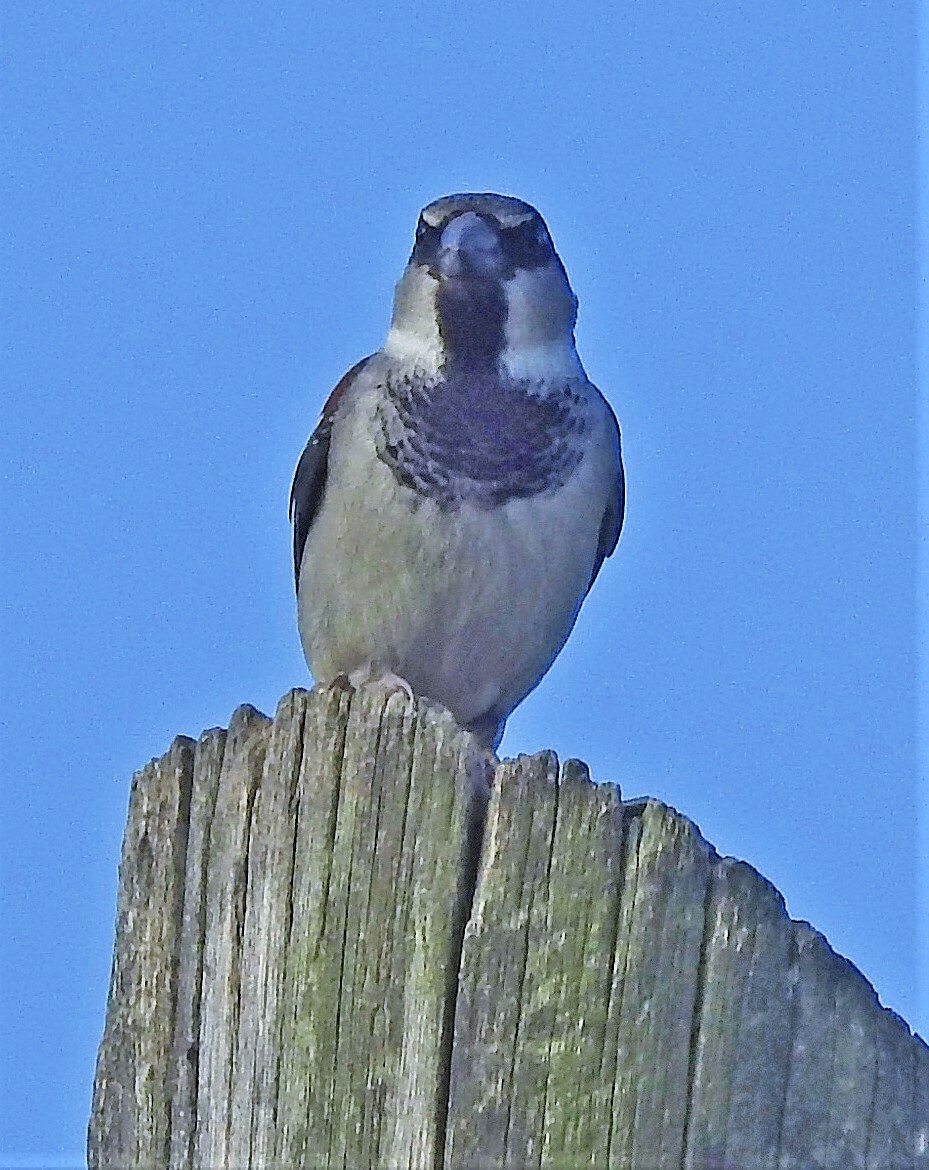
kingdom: Animalia
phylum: Chordata
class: Aves
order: Passeriformes
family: Passeridae
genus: Passer
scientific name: Passer domesticus
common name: House sparrow
